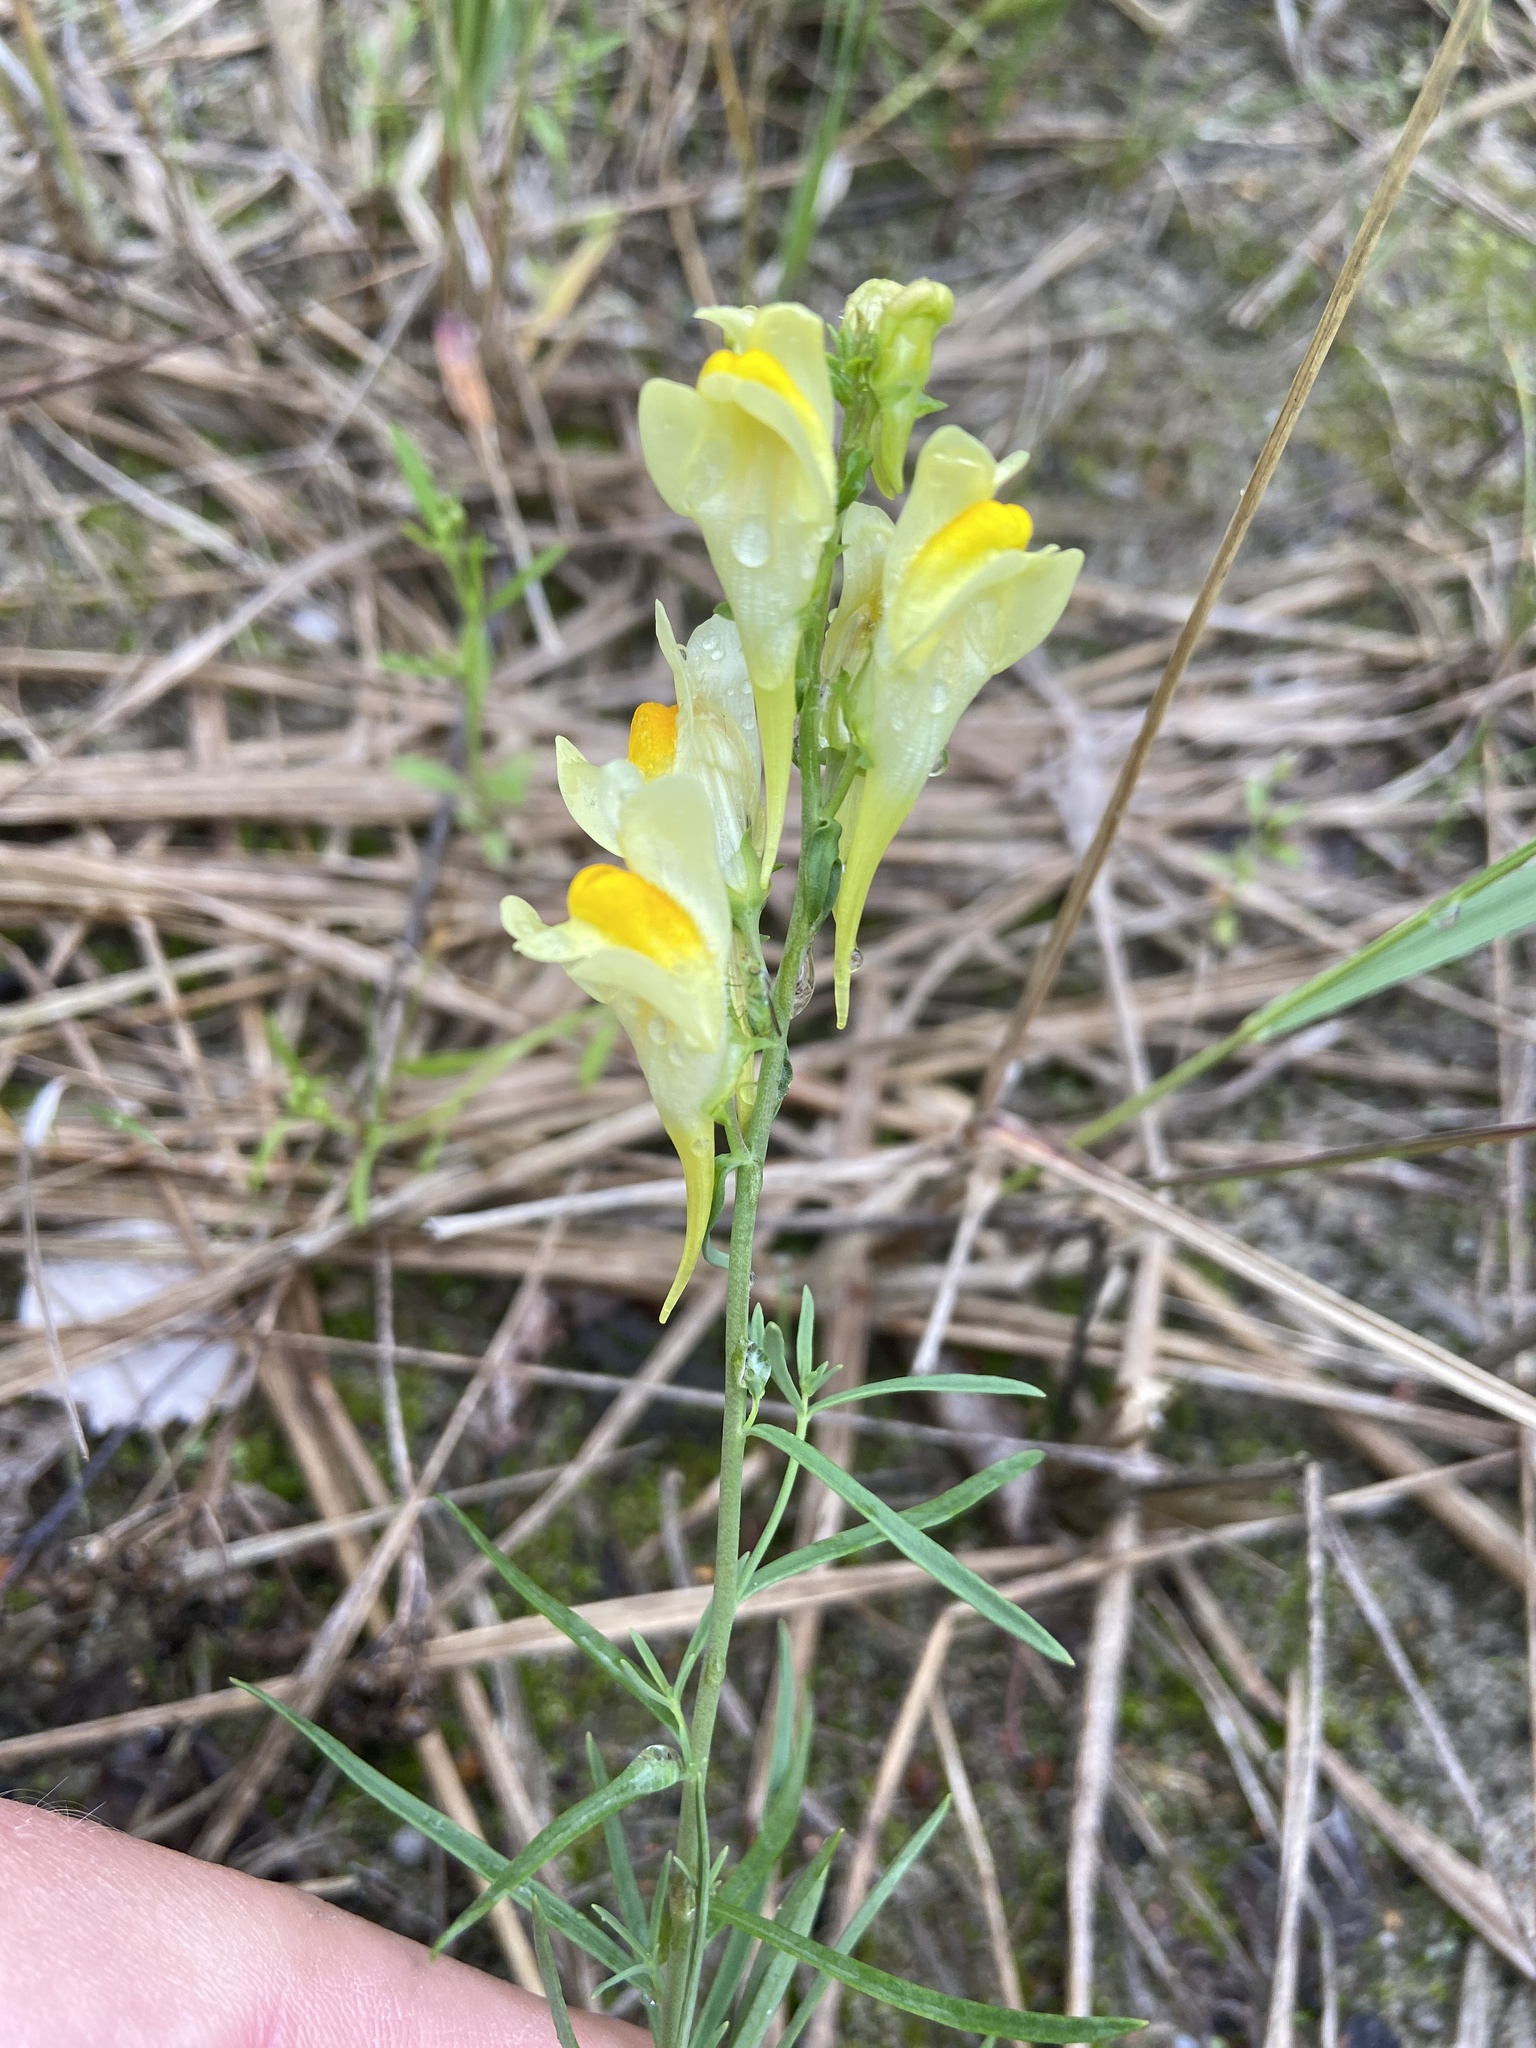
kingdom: Plantae
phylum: Tracheophyta
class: Magnoliopsida
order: Lamiales
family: Plantaginaceae
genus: Linaria
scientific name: Linaria vulgaris
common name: Butter and eggs
